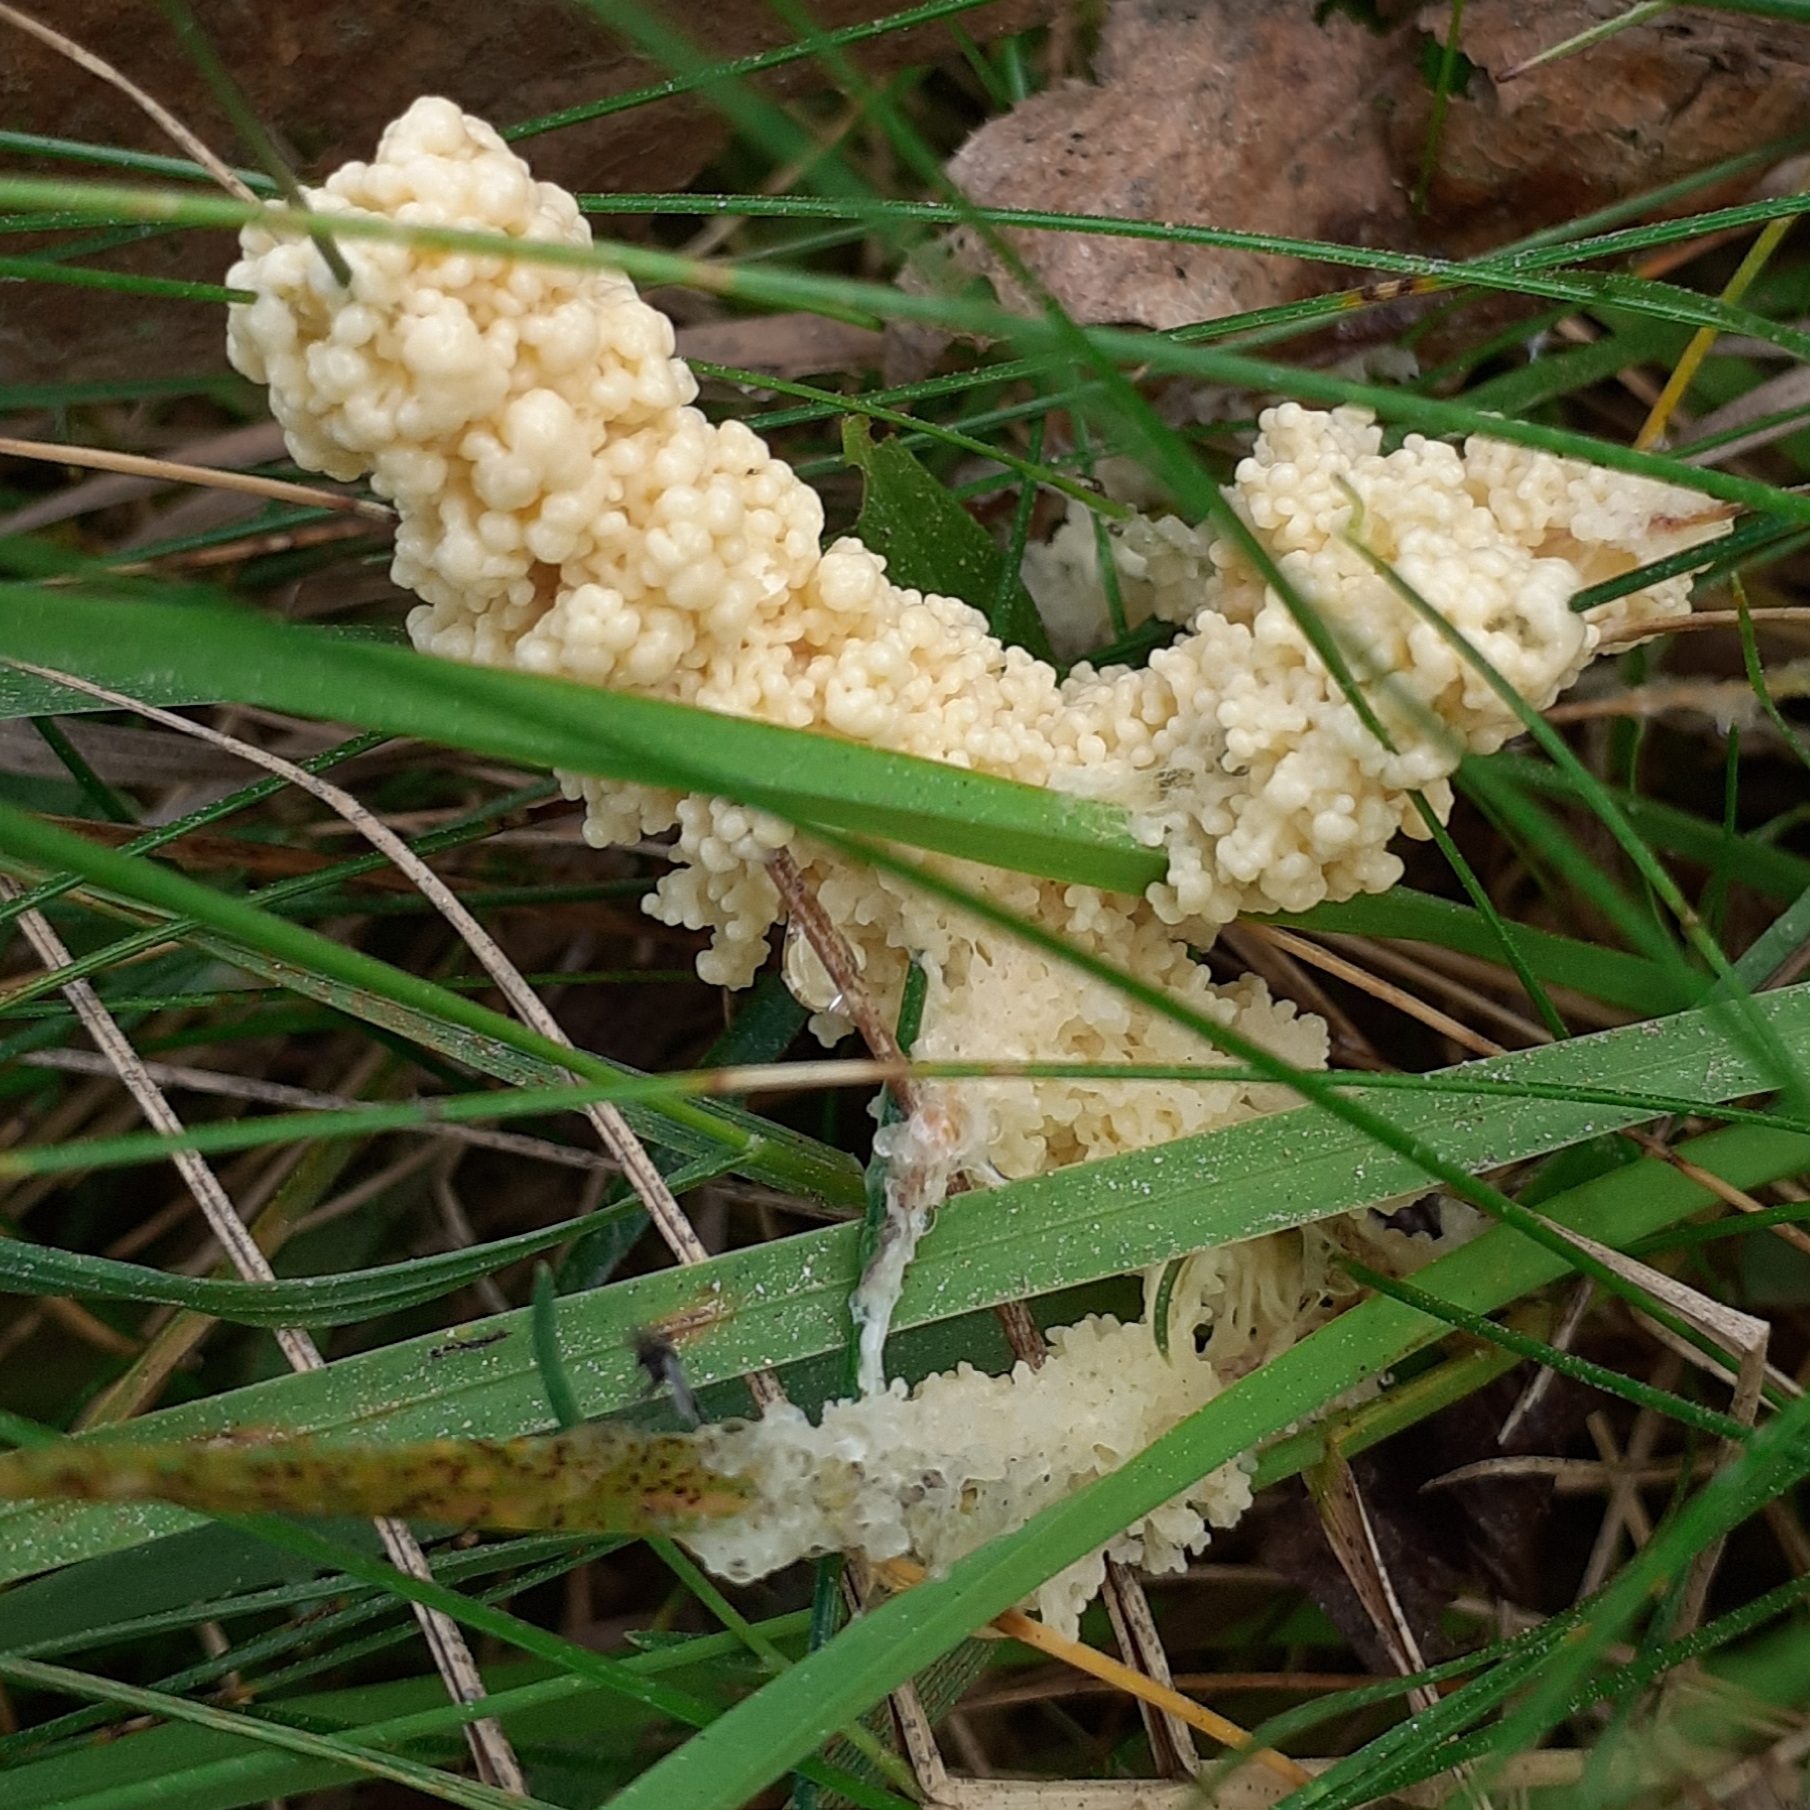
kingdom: Protozoa
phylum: Mycetozoa
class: Myxomycetes
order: Physarales
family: Physaraceae
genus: Didymium
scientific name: Didymium
